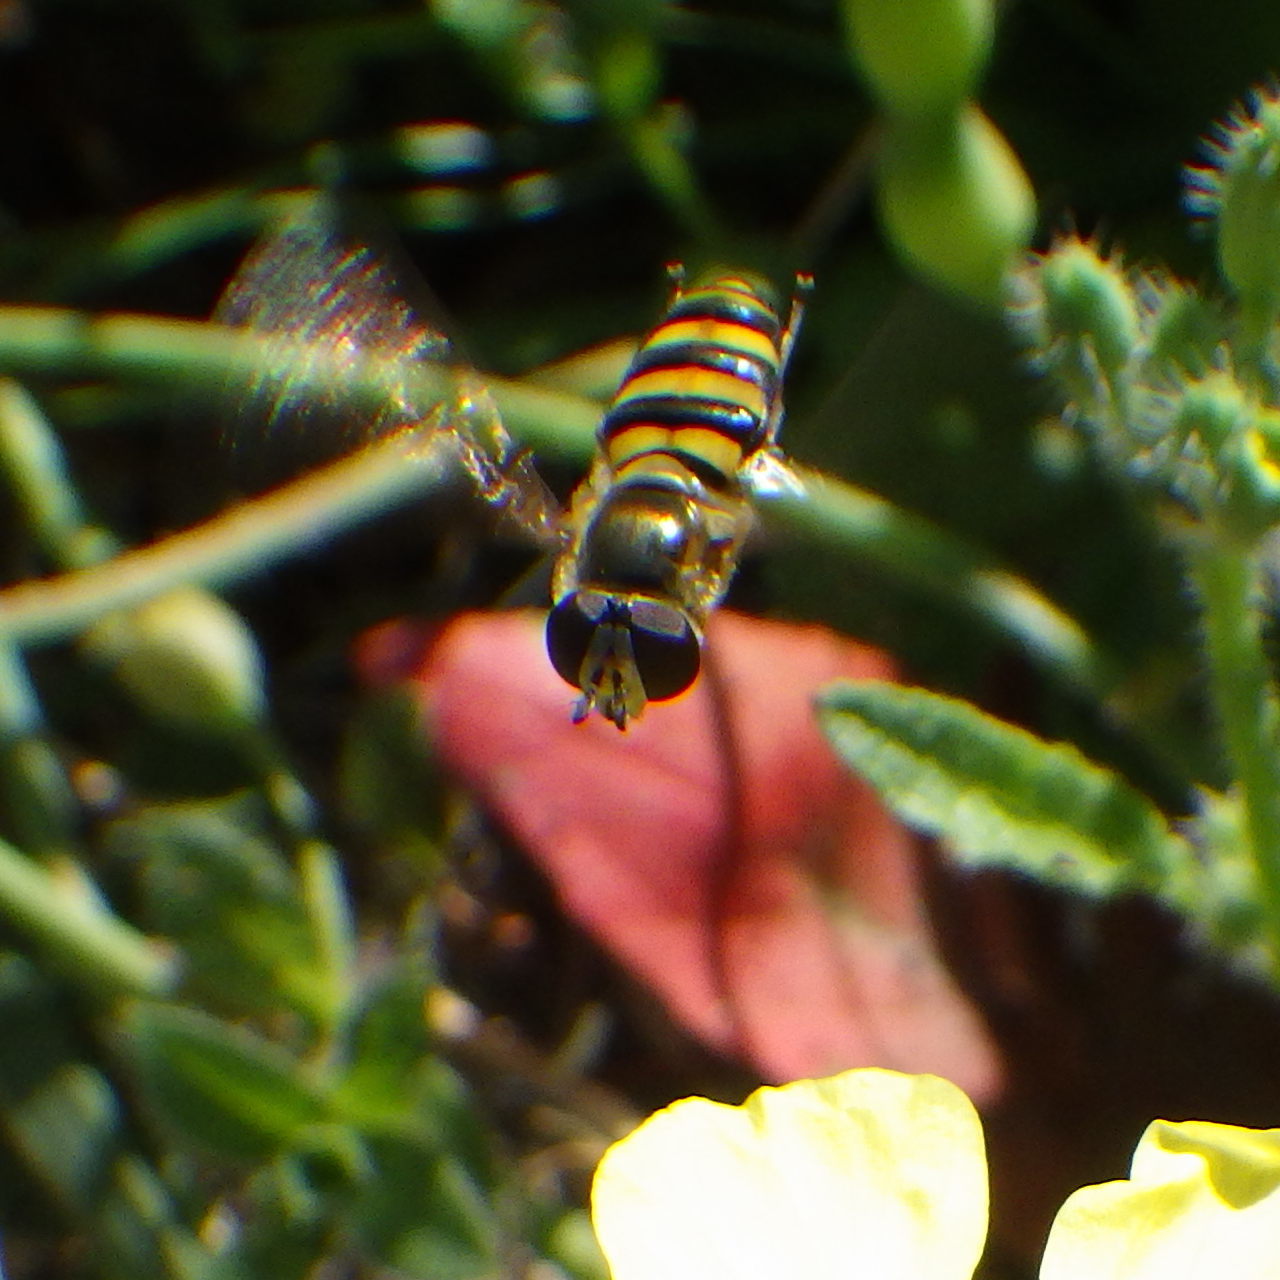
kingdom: Animalia
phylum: Arthropoda
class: Insecta
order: Diptera
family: Syrphidae
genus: Eupeodes
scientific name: Eupeodes
